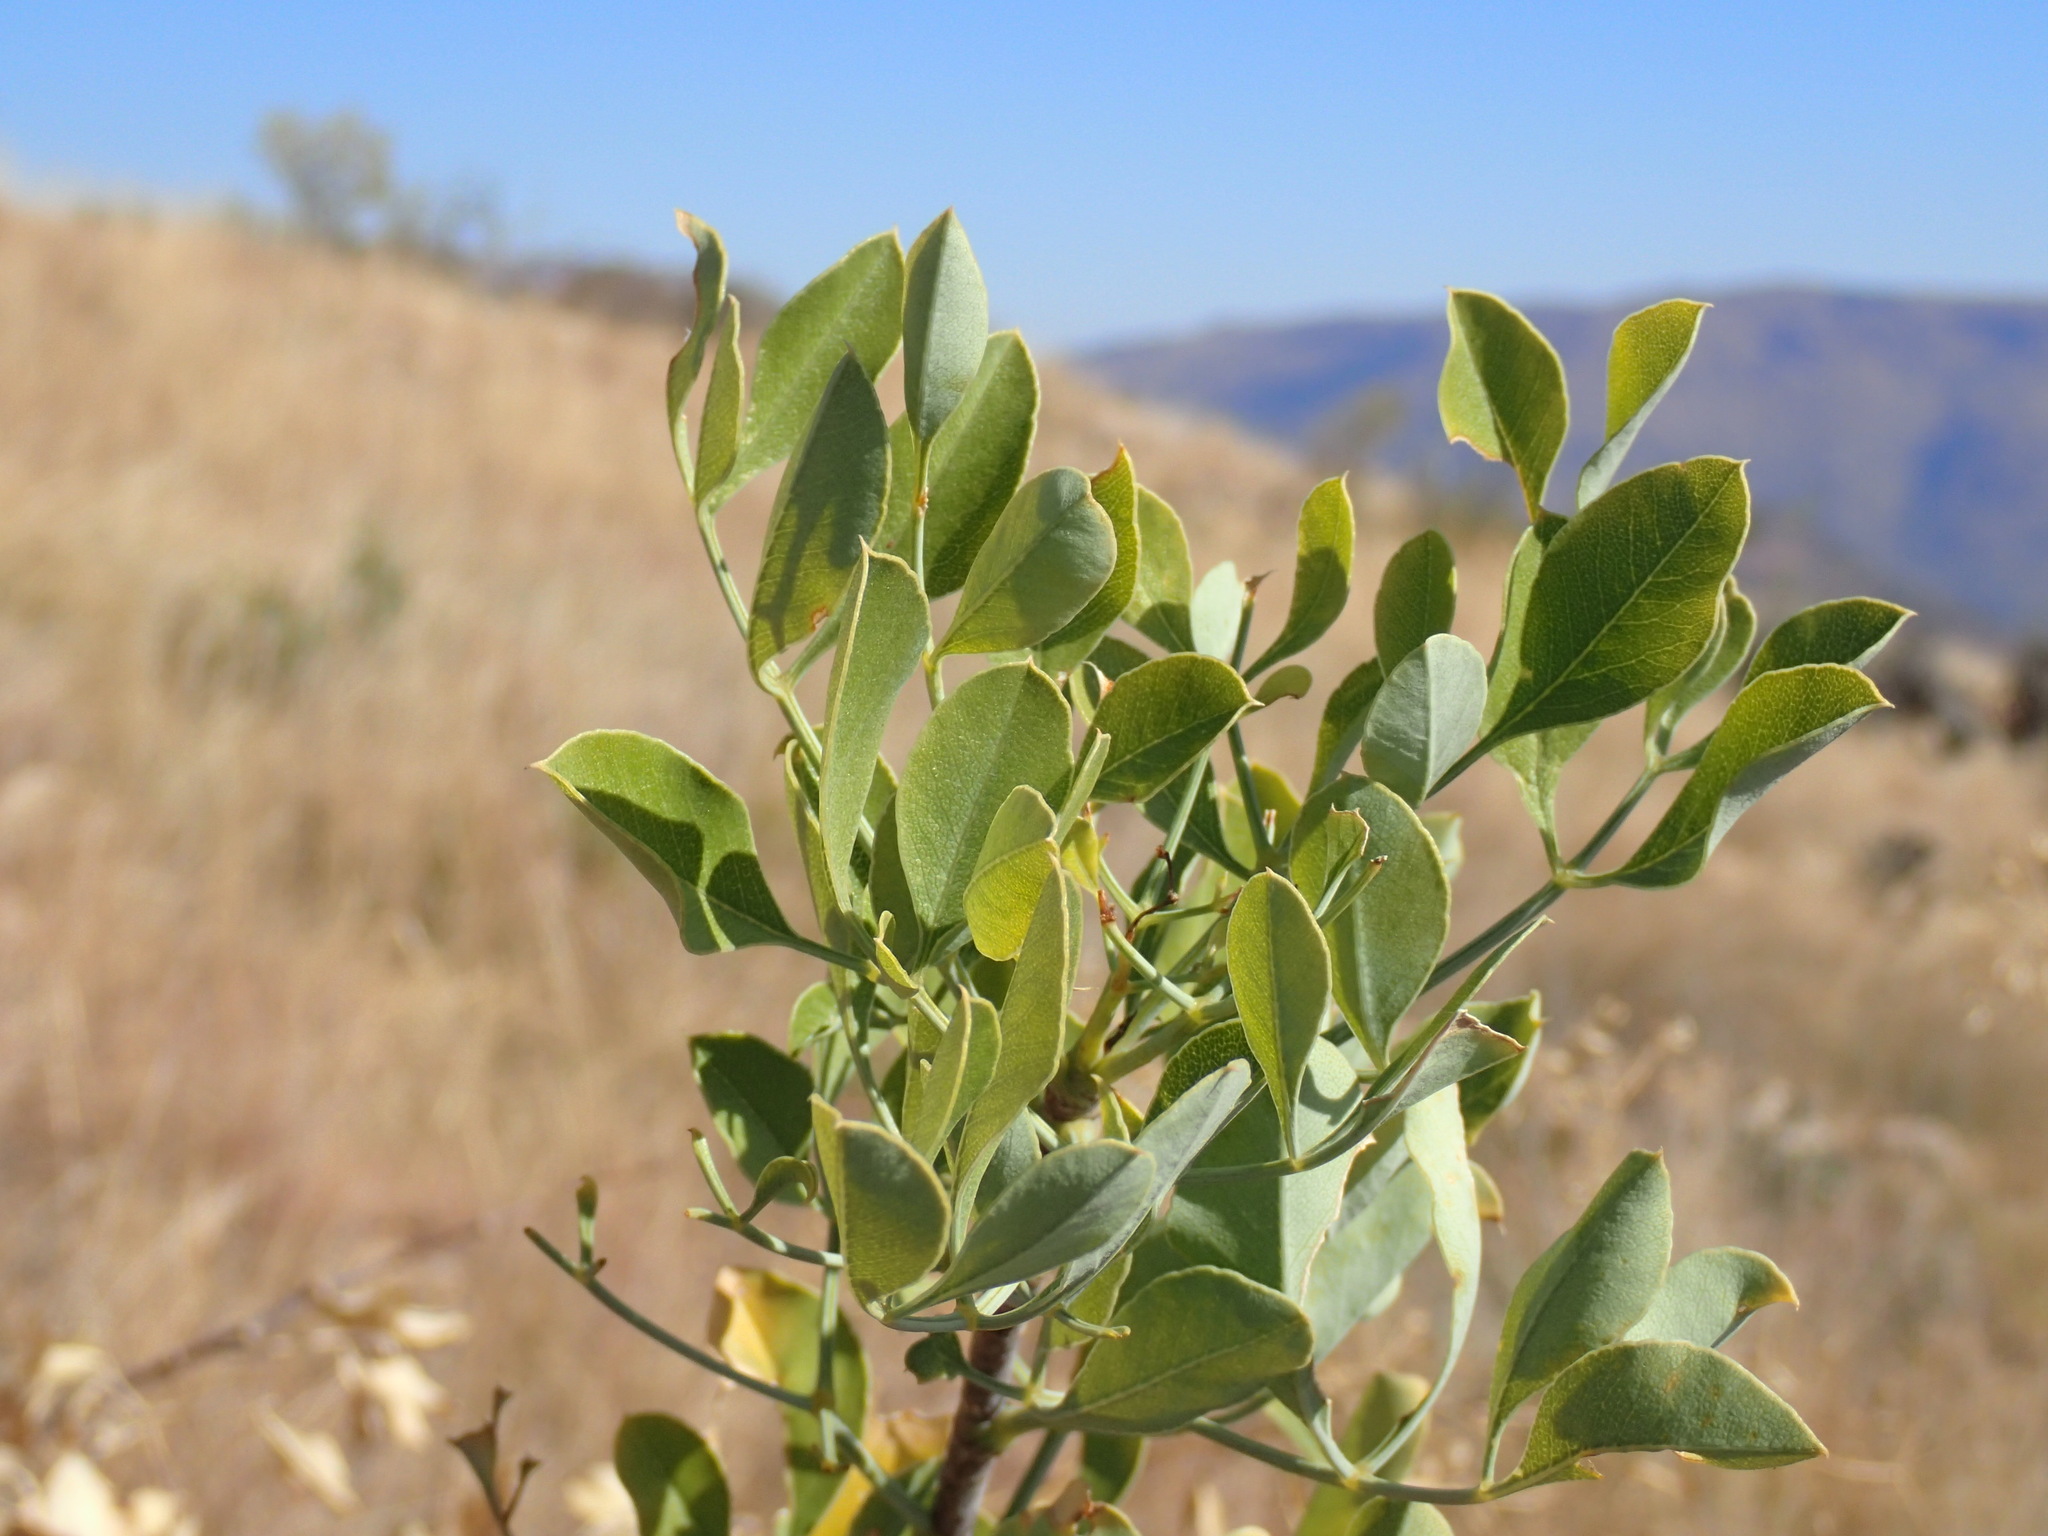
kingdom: Plantae
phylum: Tracheophyta
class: Magnoliopsida
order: Apiales
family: Apiaceae
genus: Heteromorpha
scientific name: Heteromorpha arborescens
